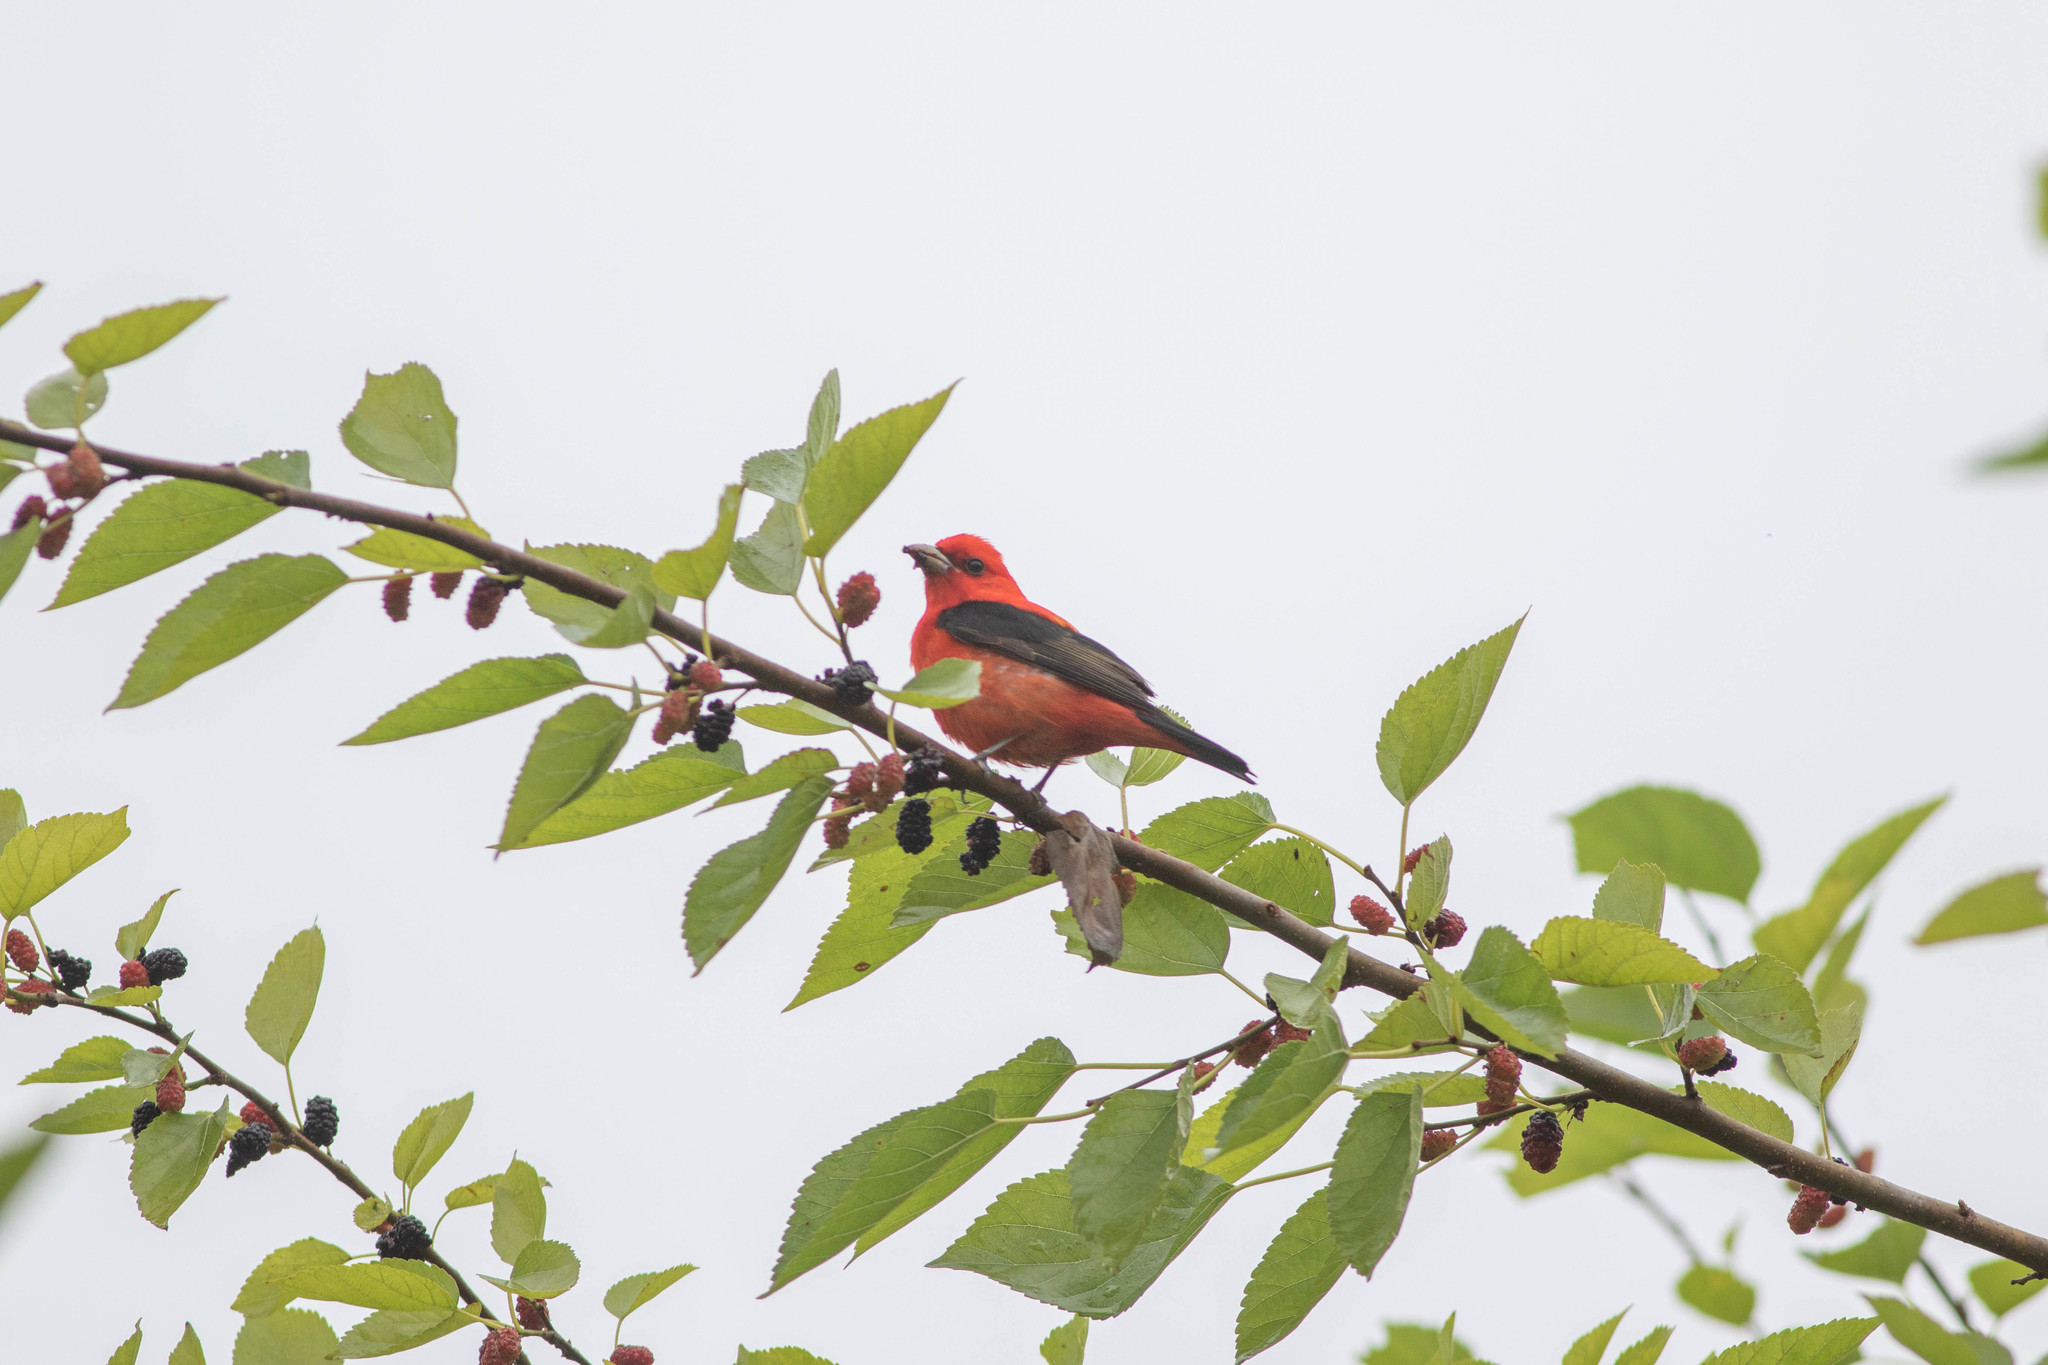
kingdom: Animalia
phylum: Chordata
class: Aves
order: Passeriformes
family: Cardinalidae
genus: Piranga
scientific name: Piranga olivacea
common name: Scarlet tanager
